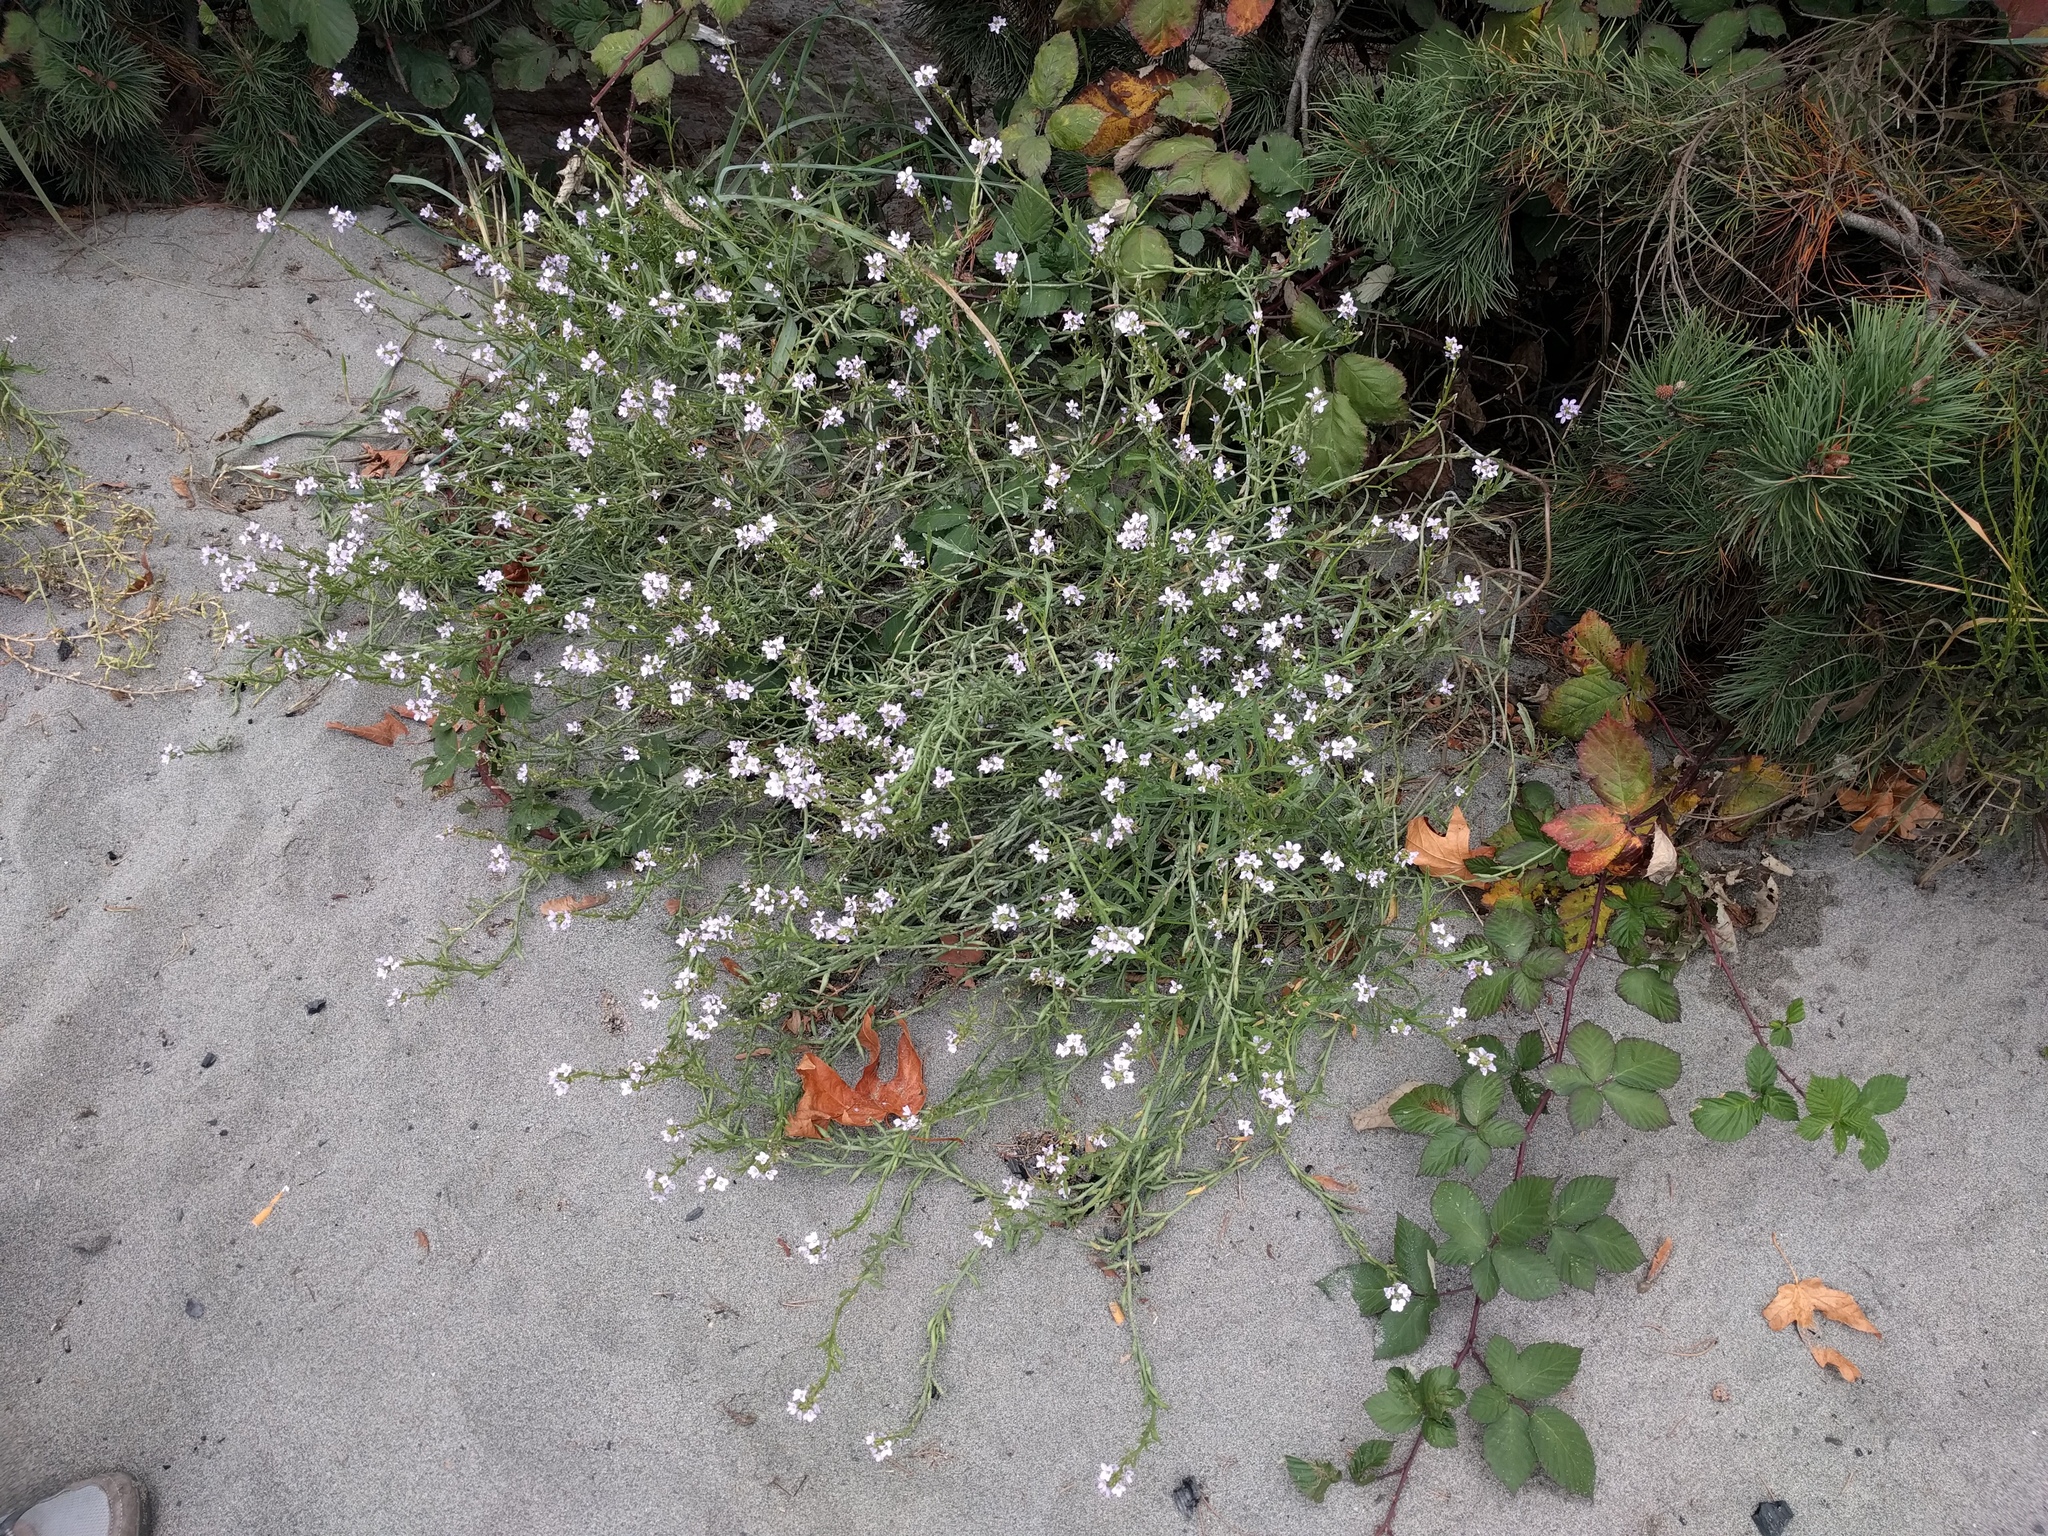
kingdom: Plantae
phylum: Tracheophyta
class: Magnoliopsida
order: Brassicales
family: Brassicaceae
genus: Cakile
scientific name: Cakile maritima
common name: Sea rocket
